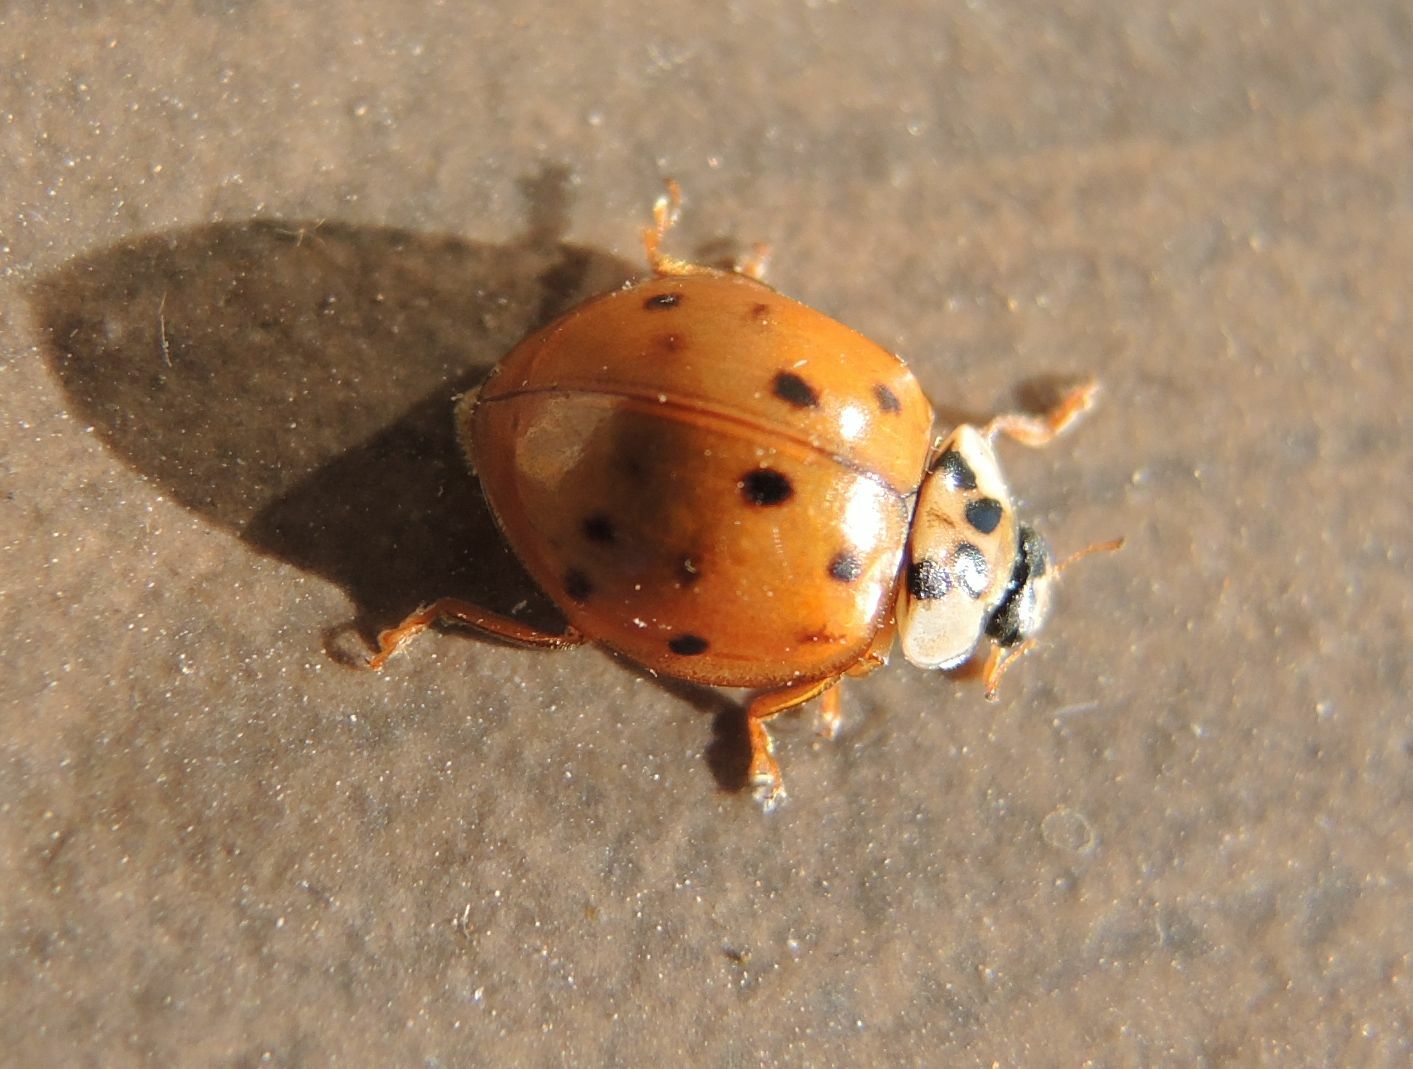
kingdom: Animalia
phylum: Arthropoda
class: Insecta
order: Coleoptera
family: Coccinellidae
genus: Harmonia
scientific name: Harmonia axyridis
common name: Harlequin ladybird
